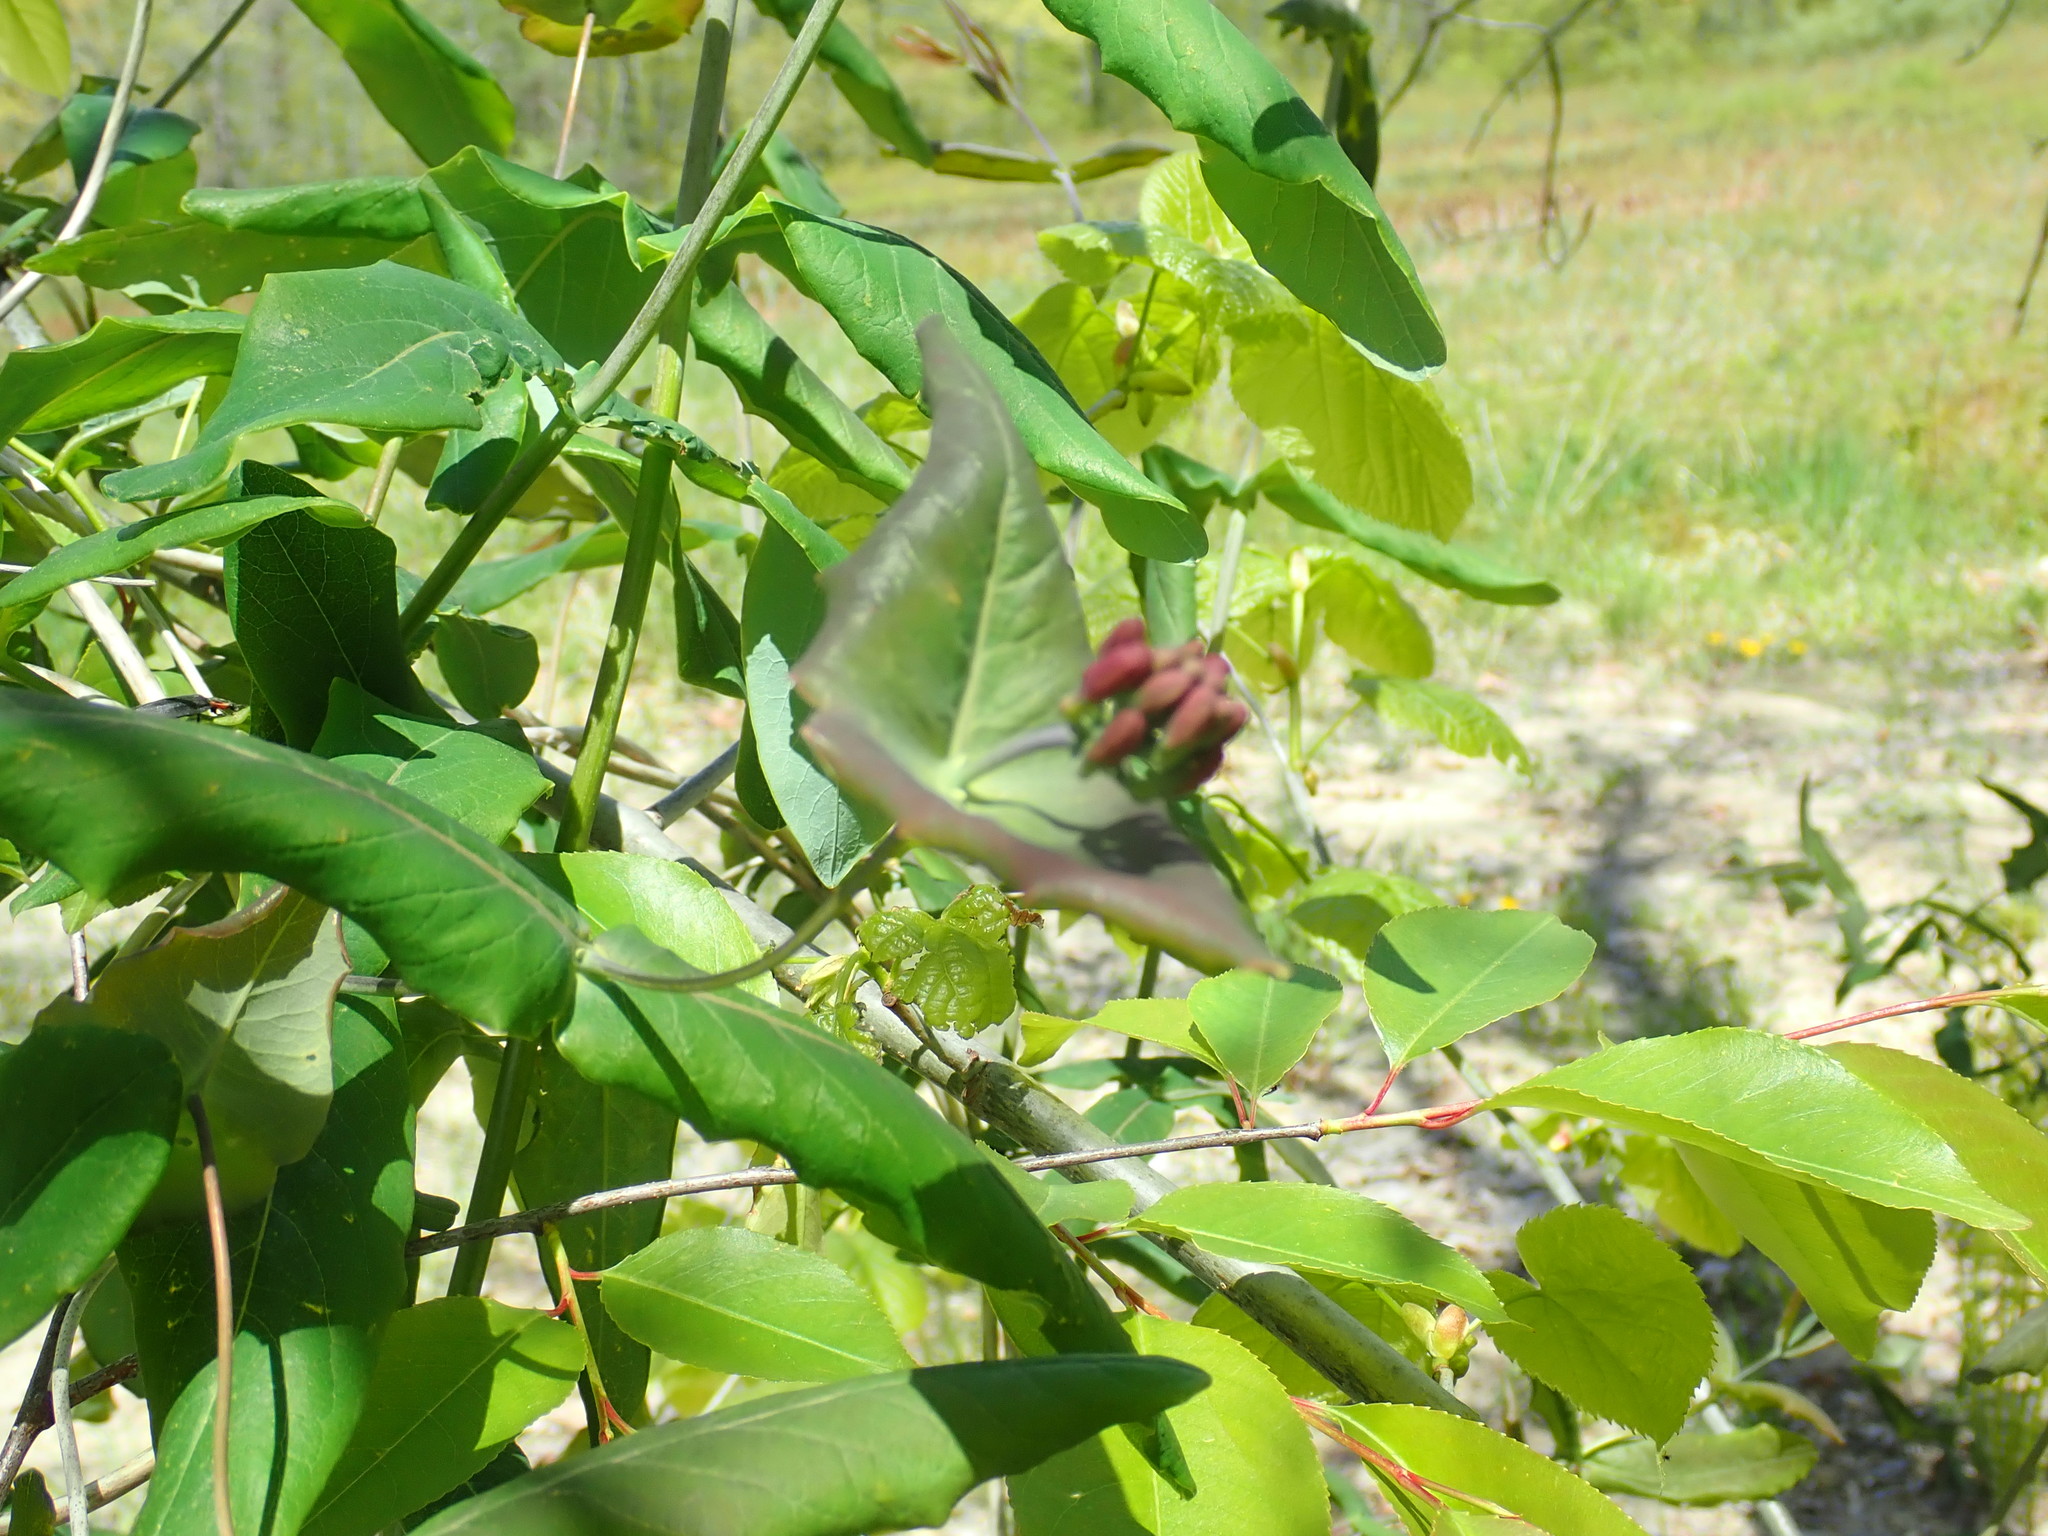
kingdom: Plantae
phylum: Tracheophyta
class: Magnoliopsida
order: Dipsacales
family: Caprifoliaceae
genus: Lonicera
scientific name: Lonicera dioica
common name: Limber honeysuckle
